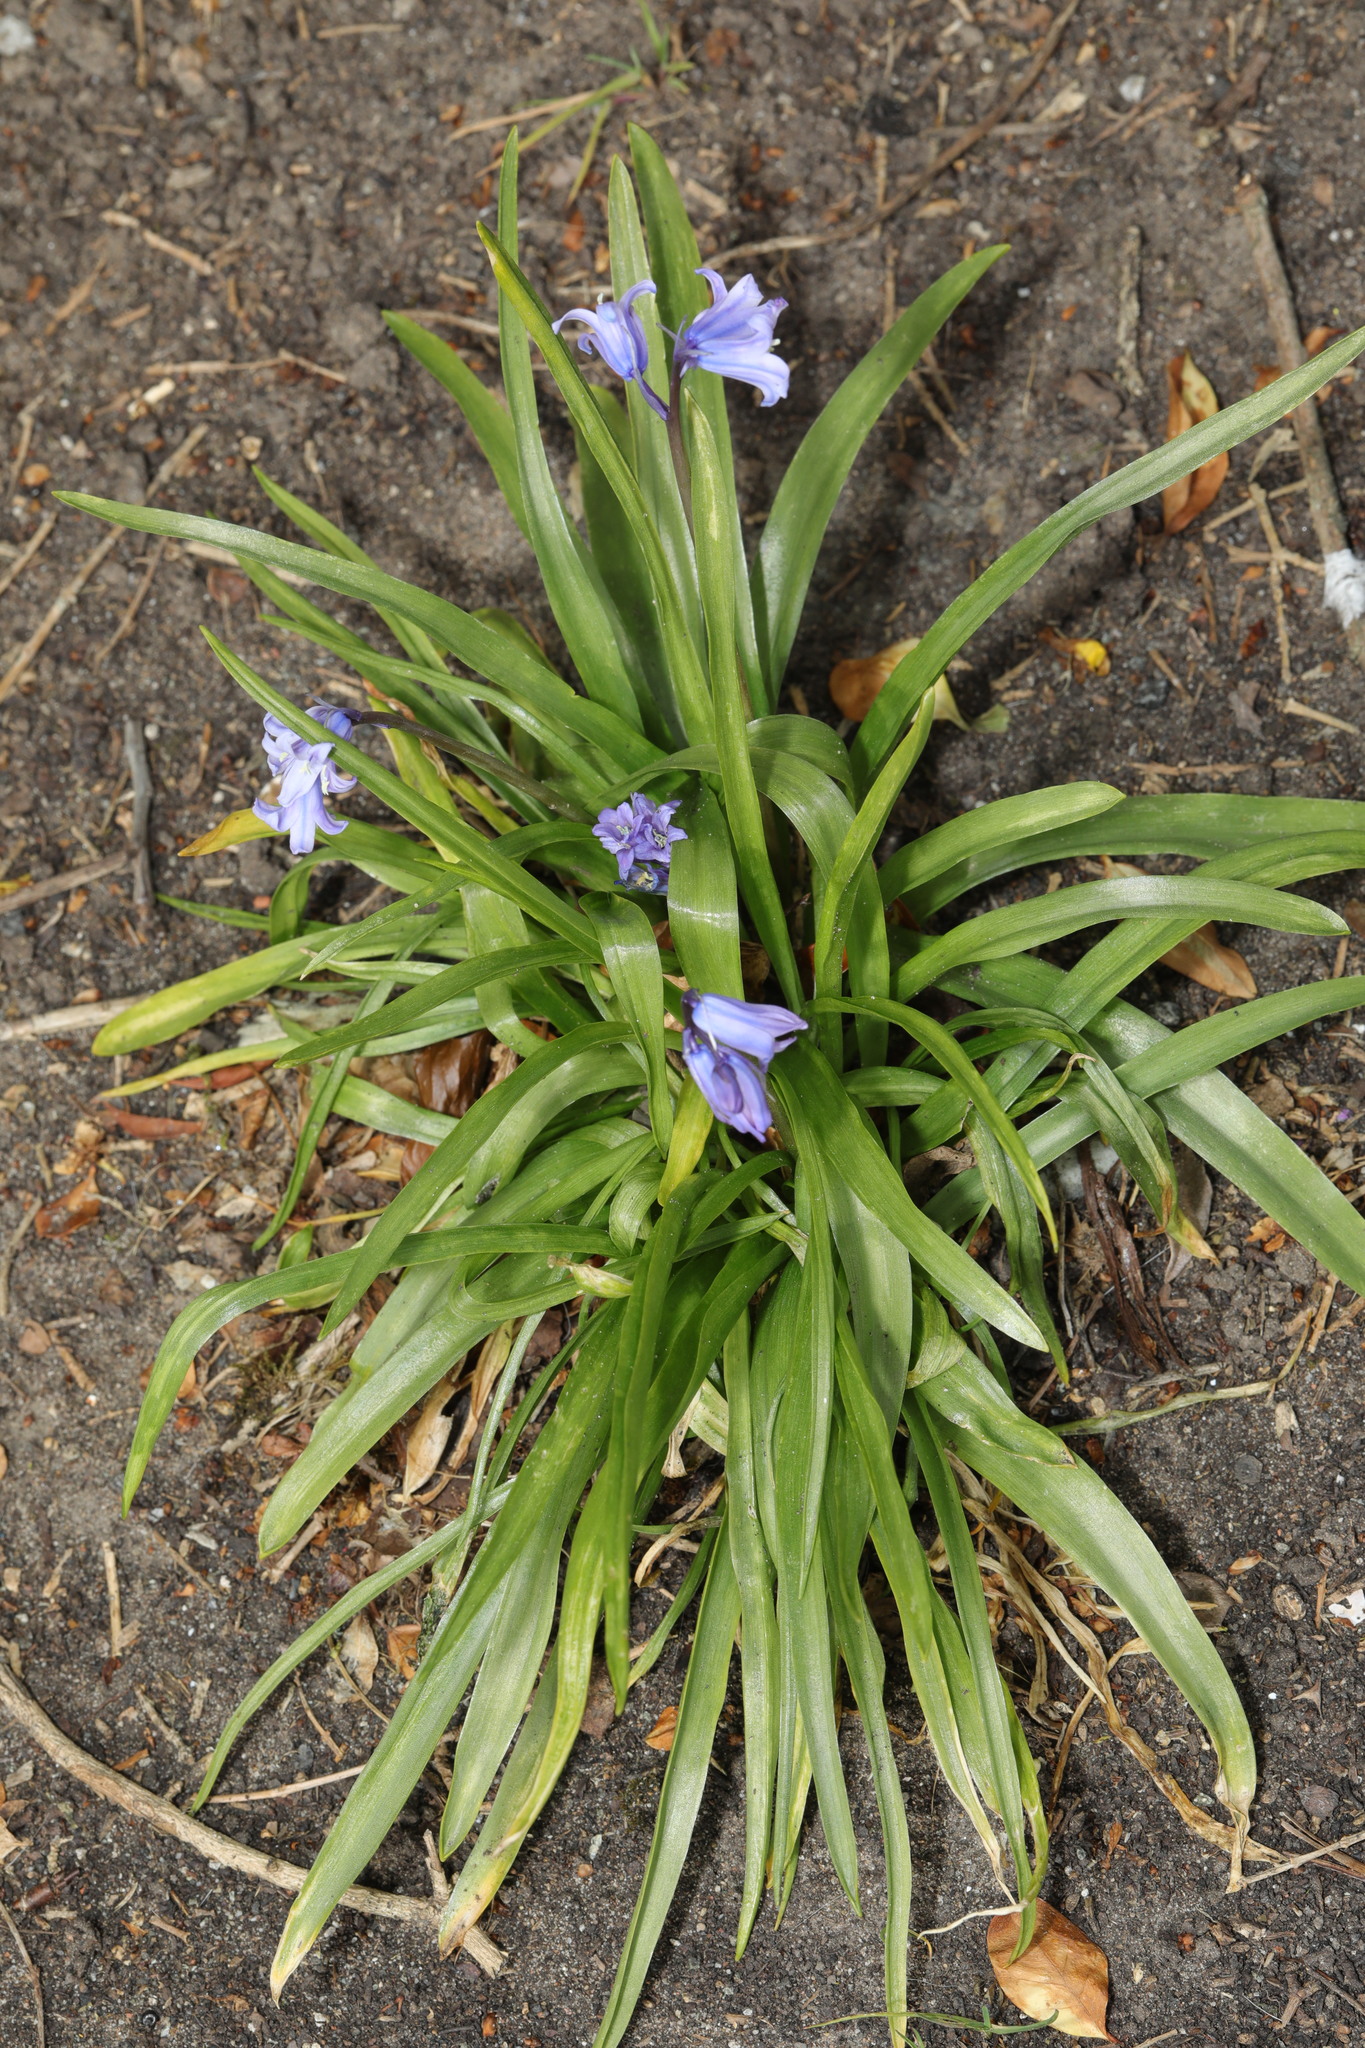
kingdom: Plantae
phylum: Tracheophyta
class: Liliopsida
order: Asparagales
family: Asparagaceae
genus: Hyacinthoides
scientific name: Hyacinthoides massartiana
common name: Hyacinthoides
